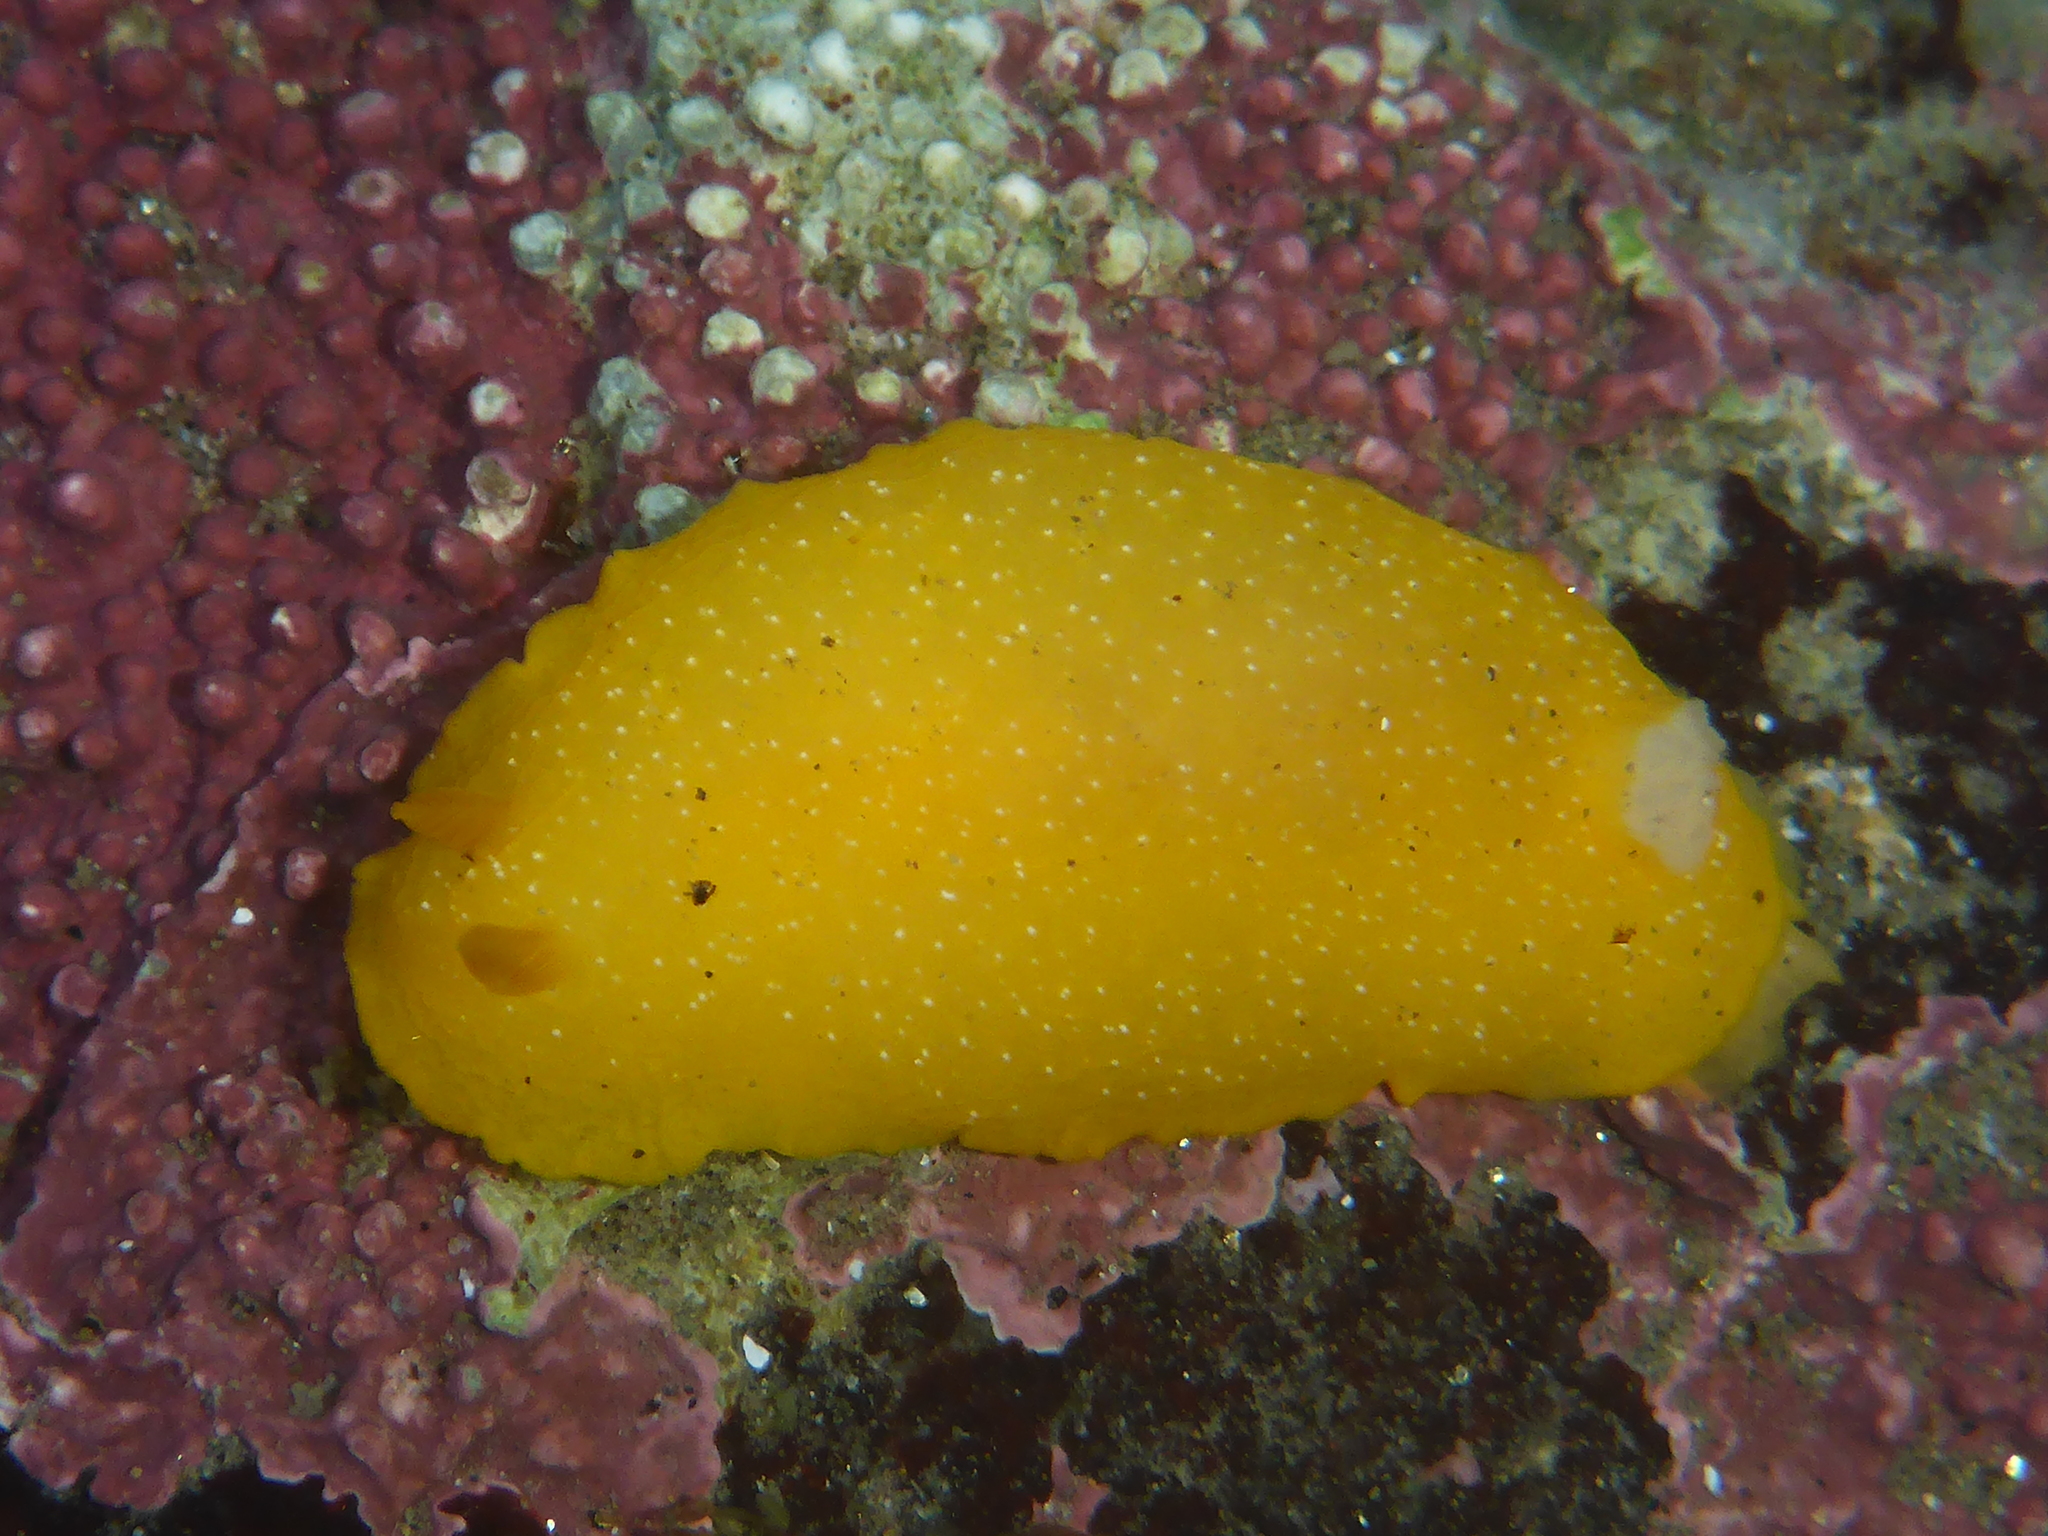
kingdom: Animalia
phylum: Mollusca
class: Gastropoda
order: Nudibranchia
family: Dendrodorididae
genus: Doriopsilla
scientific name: Doriopsilla fulva
